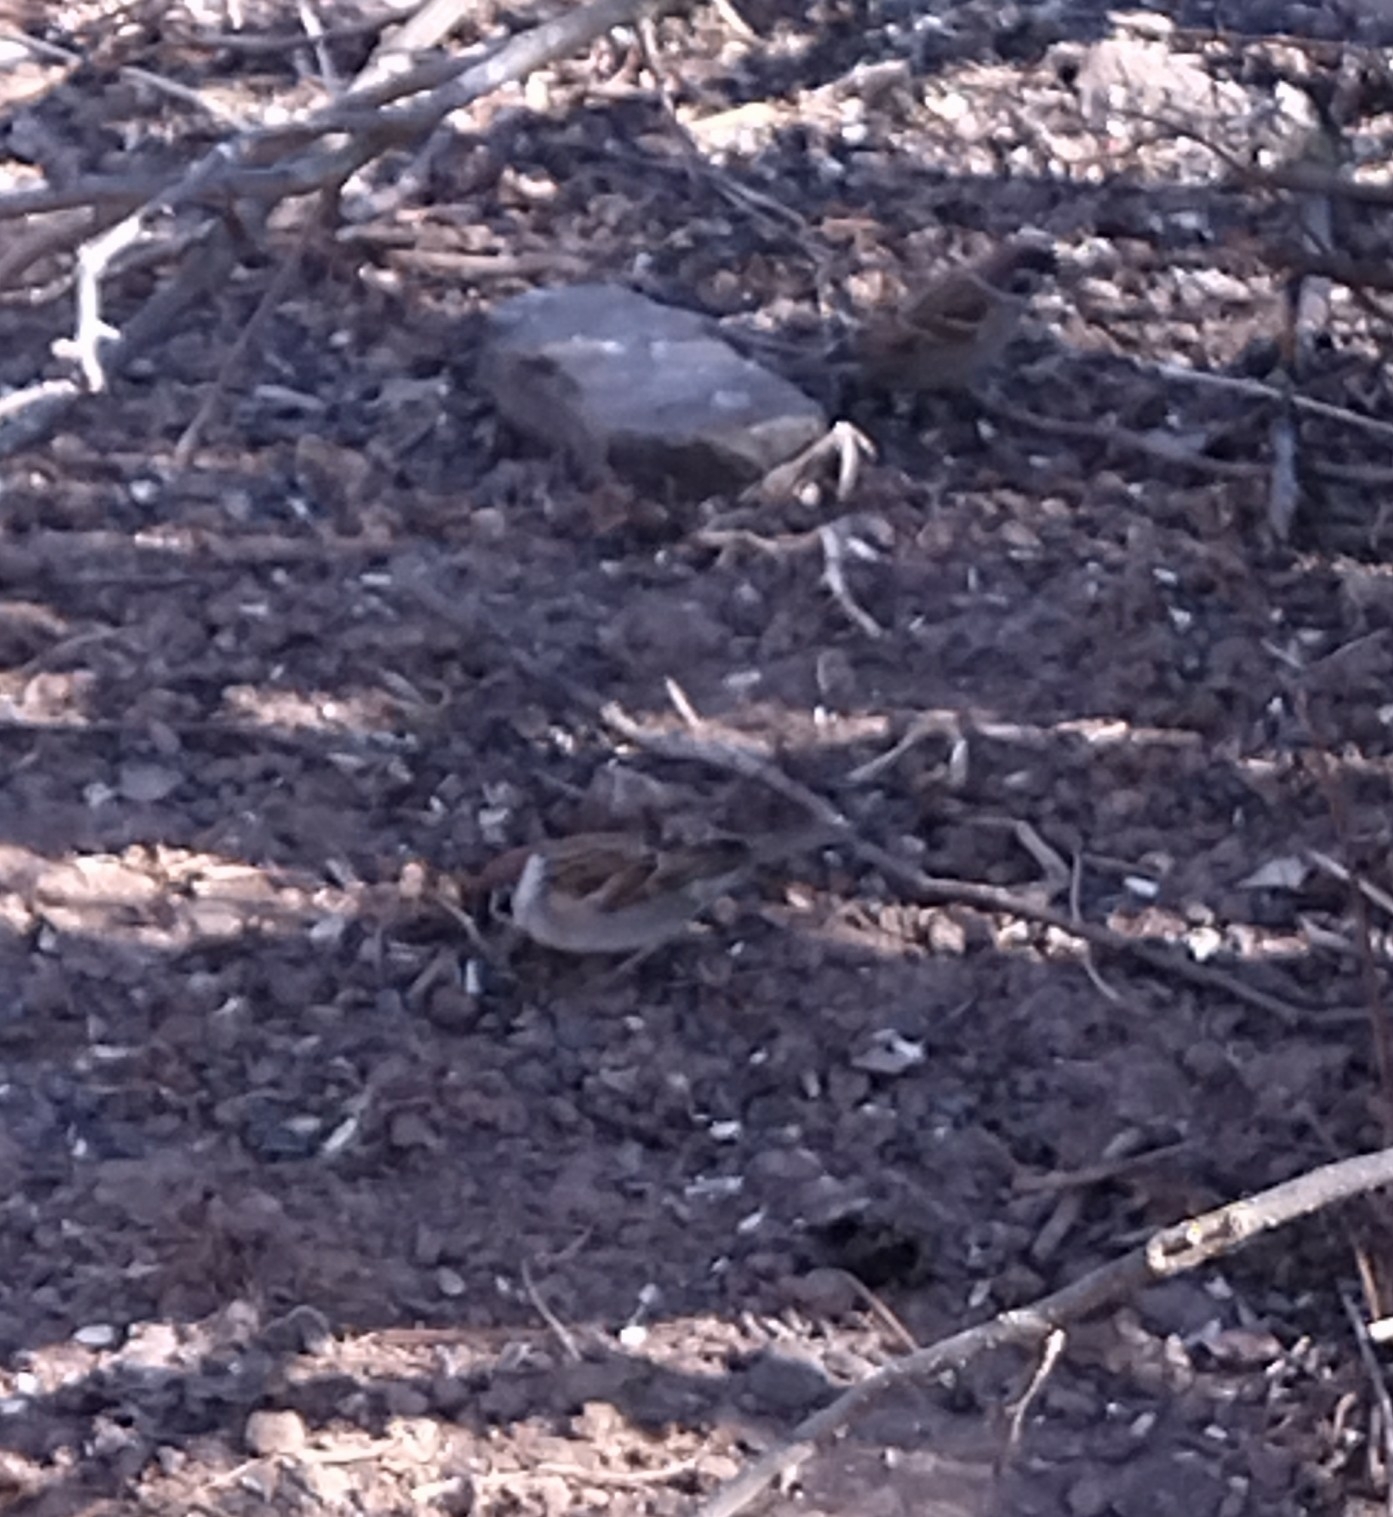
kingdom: Animalia
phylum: Chordata
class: Aves
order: Passeriformes
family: Passeridae
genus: Passer
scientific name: Passer montanus
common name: Eurasian tree sparrow
